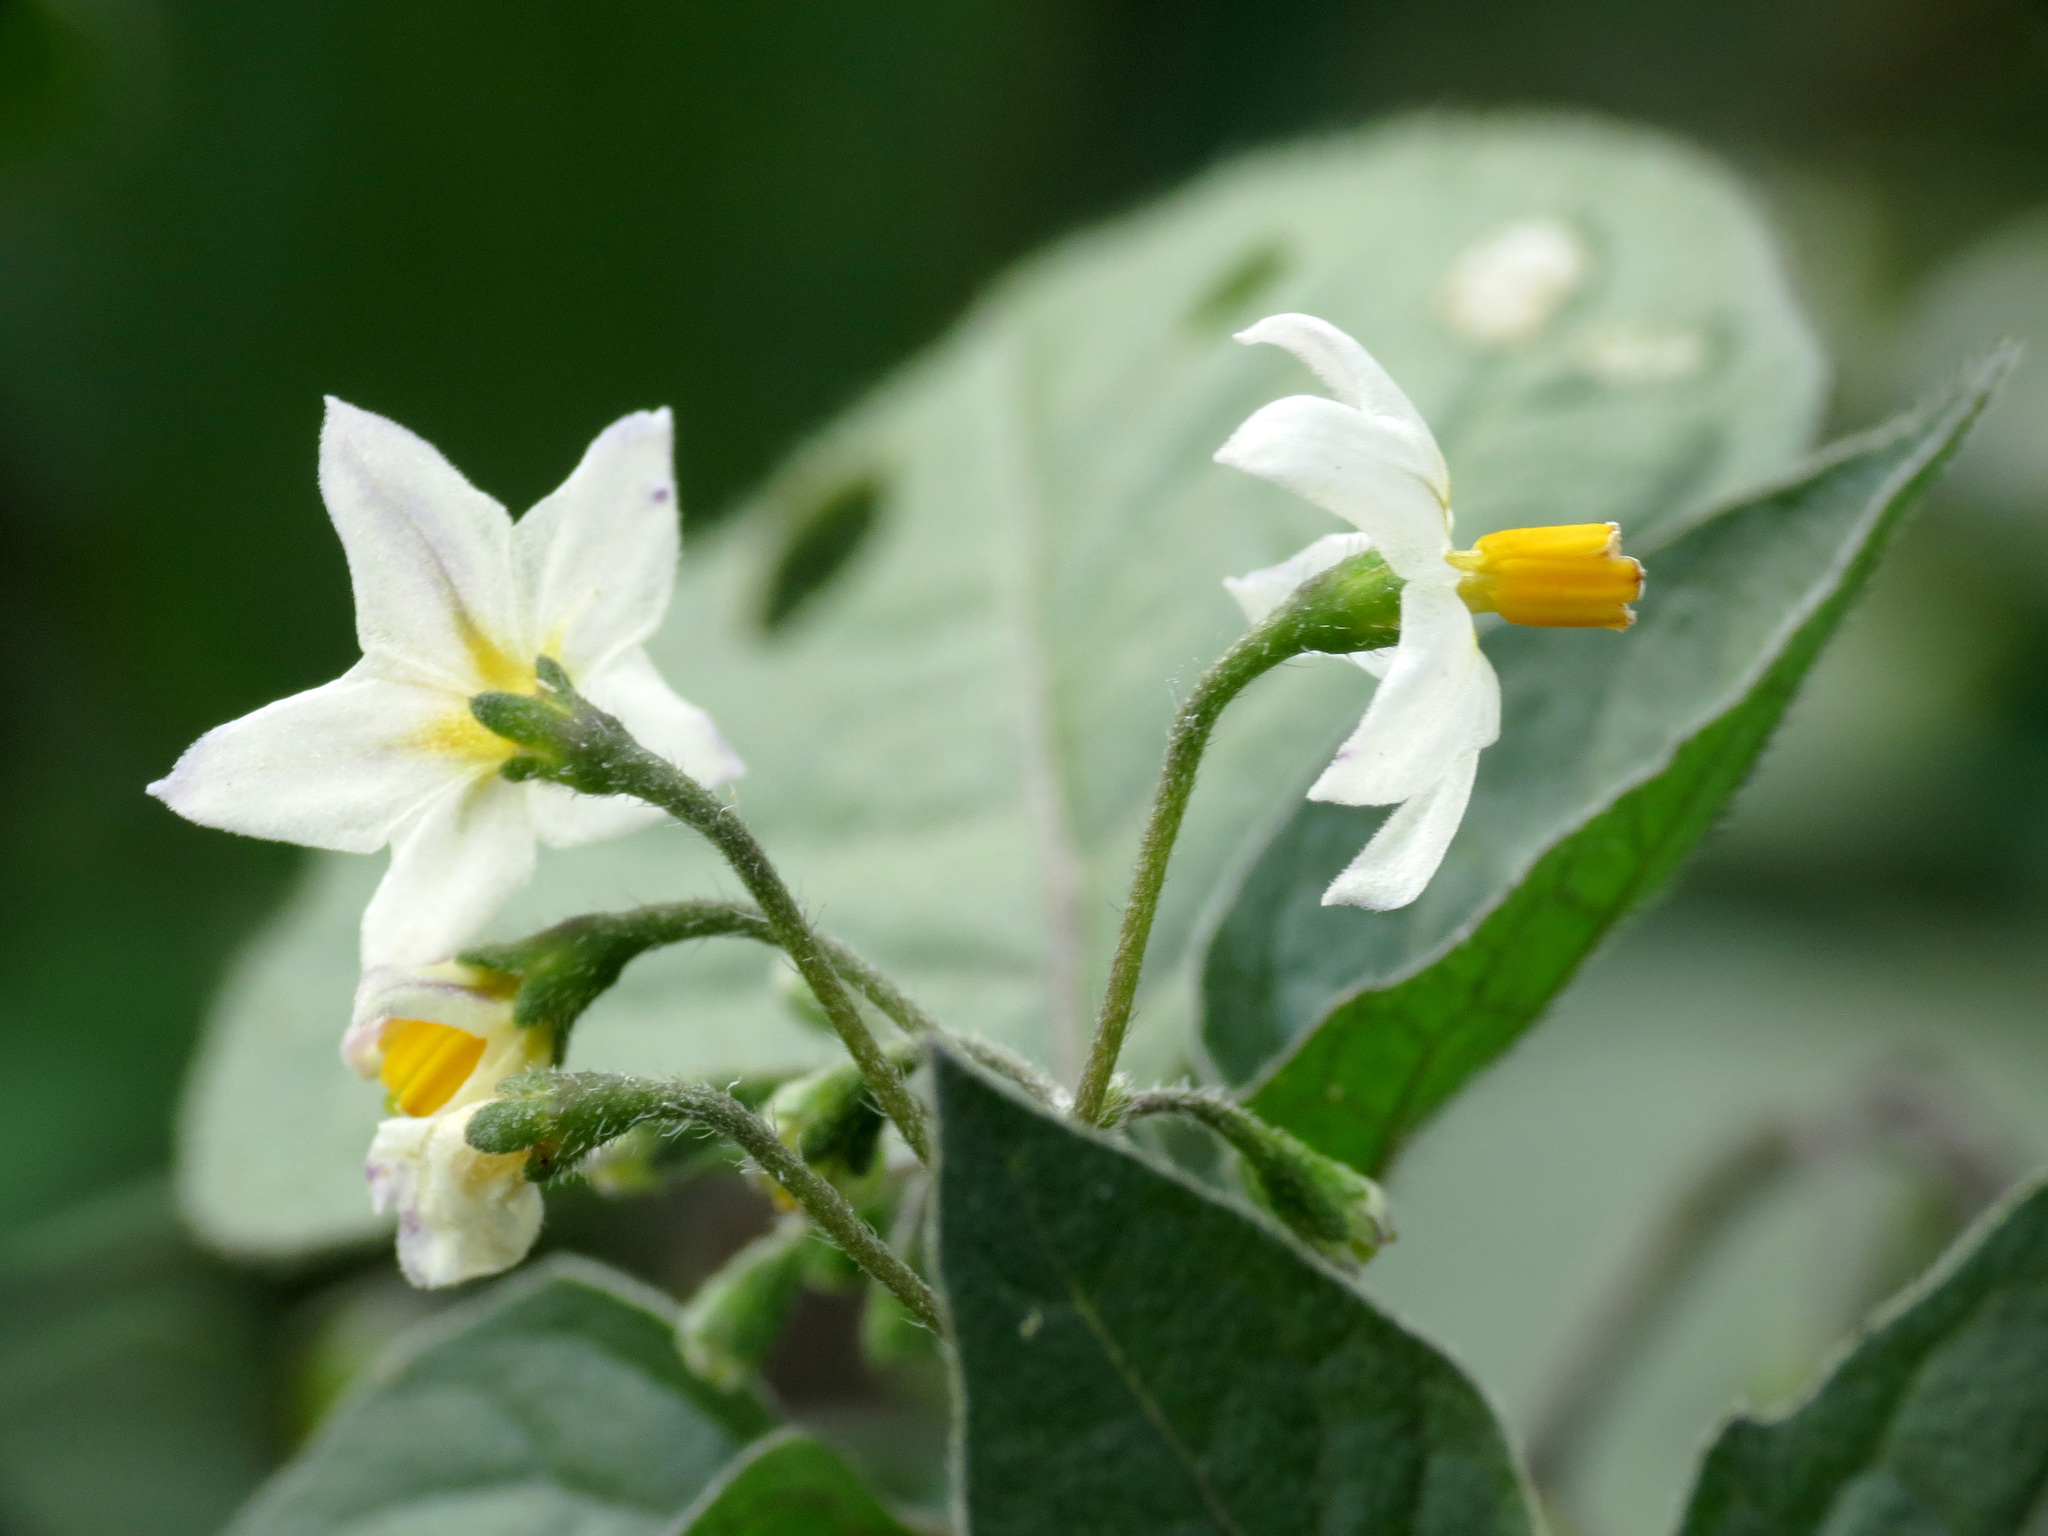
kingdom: Plantae
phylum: Tracheophyta
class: Magnoliopsida
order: Solanales
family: Solanaceae
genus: Solanum
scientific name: Solanum nigrum
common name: Black nightshade
